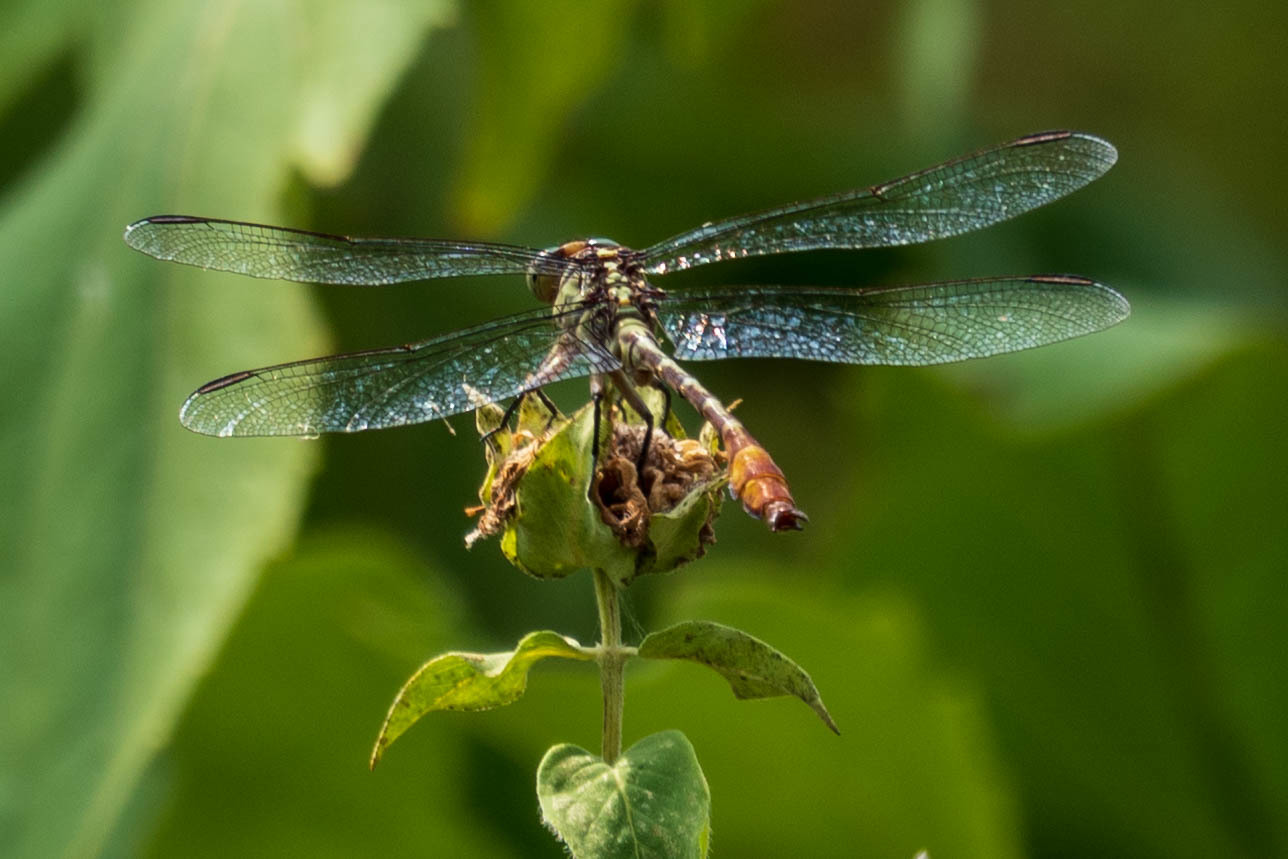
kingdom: Animalia
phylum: Arthropoda
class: Insecta
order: Odonata
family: Gomphidae
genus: Stylurus
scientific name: Stylurus plagiatus
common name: Russet-tipped clubtail
